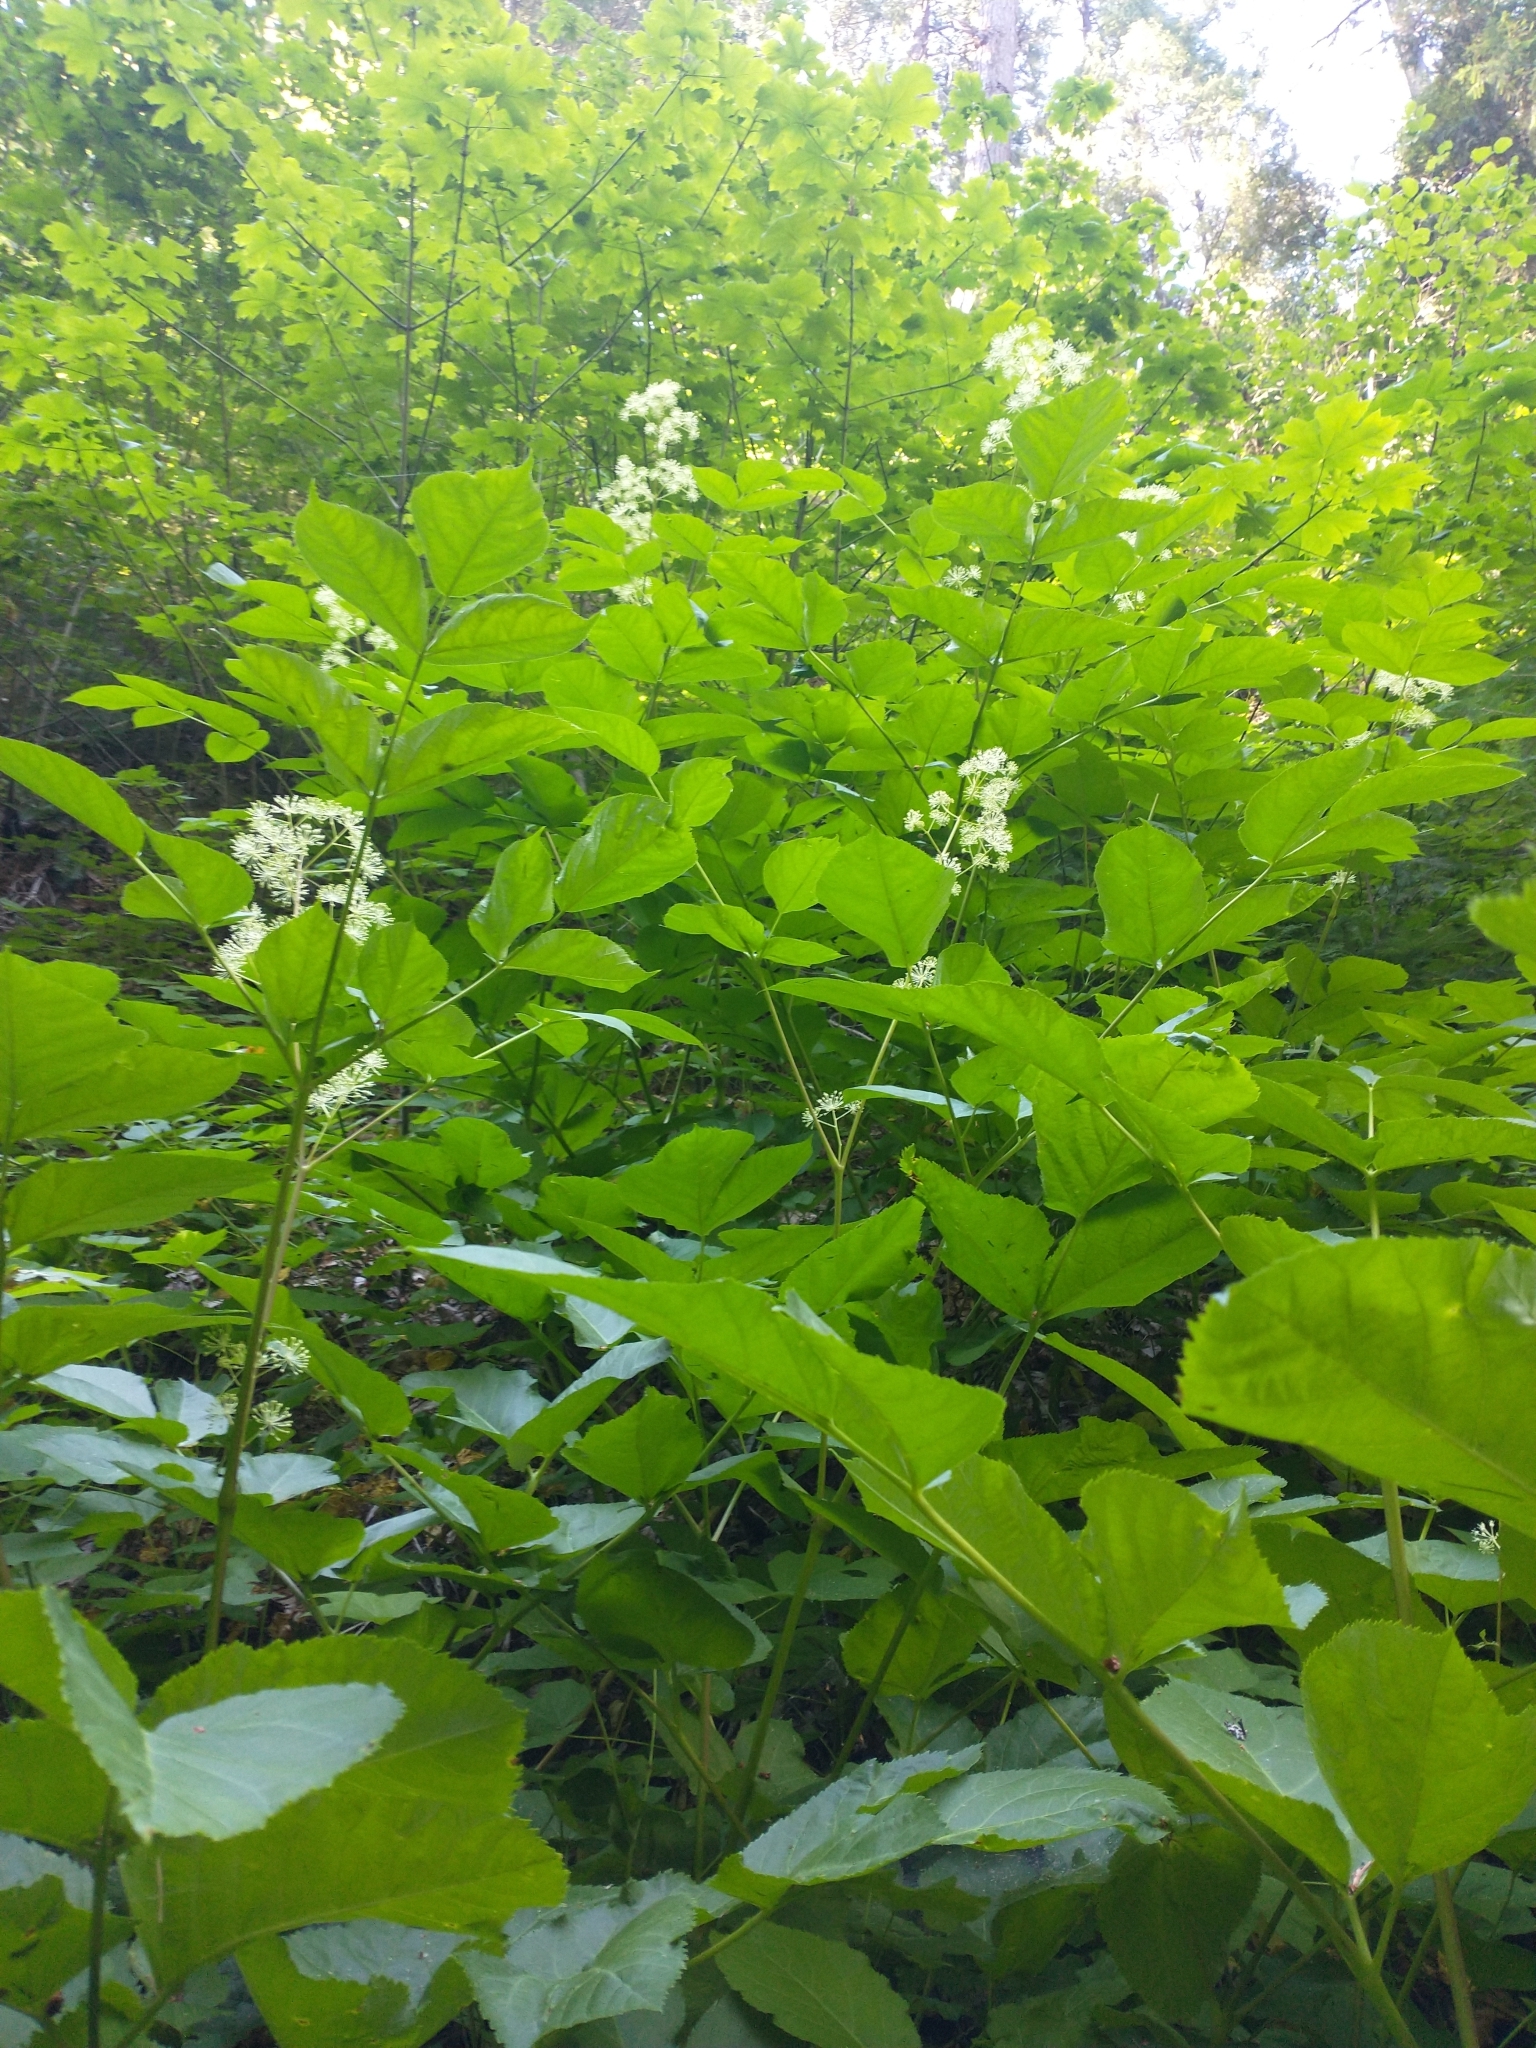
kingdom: Plantae
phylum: Tracheophyta
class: Magnoliopsida
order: Apiales
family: Araliaceae
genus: Aralia
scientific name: Aralia californica
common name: California-ginseng
